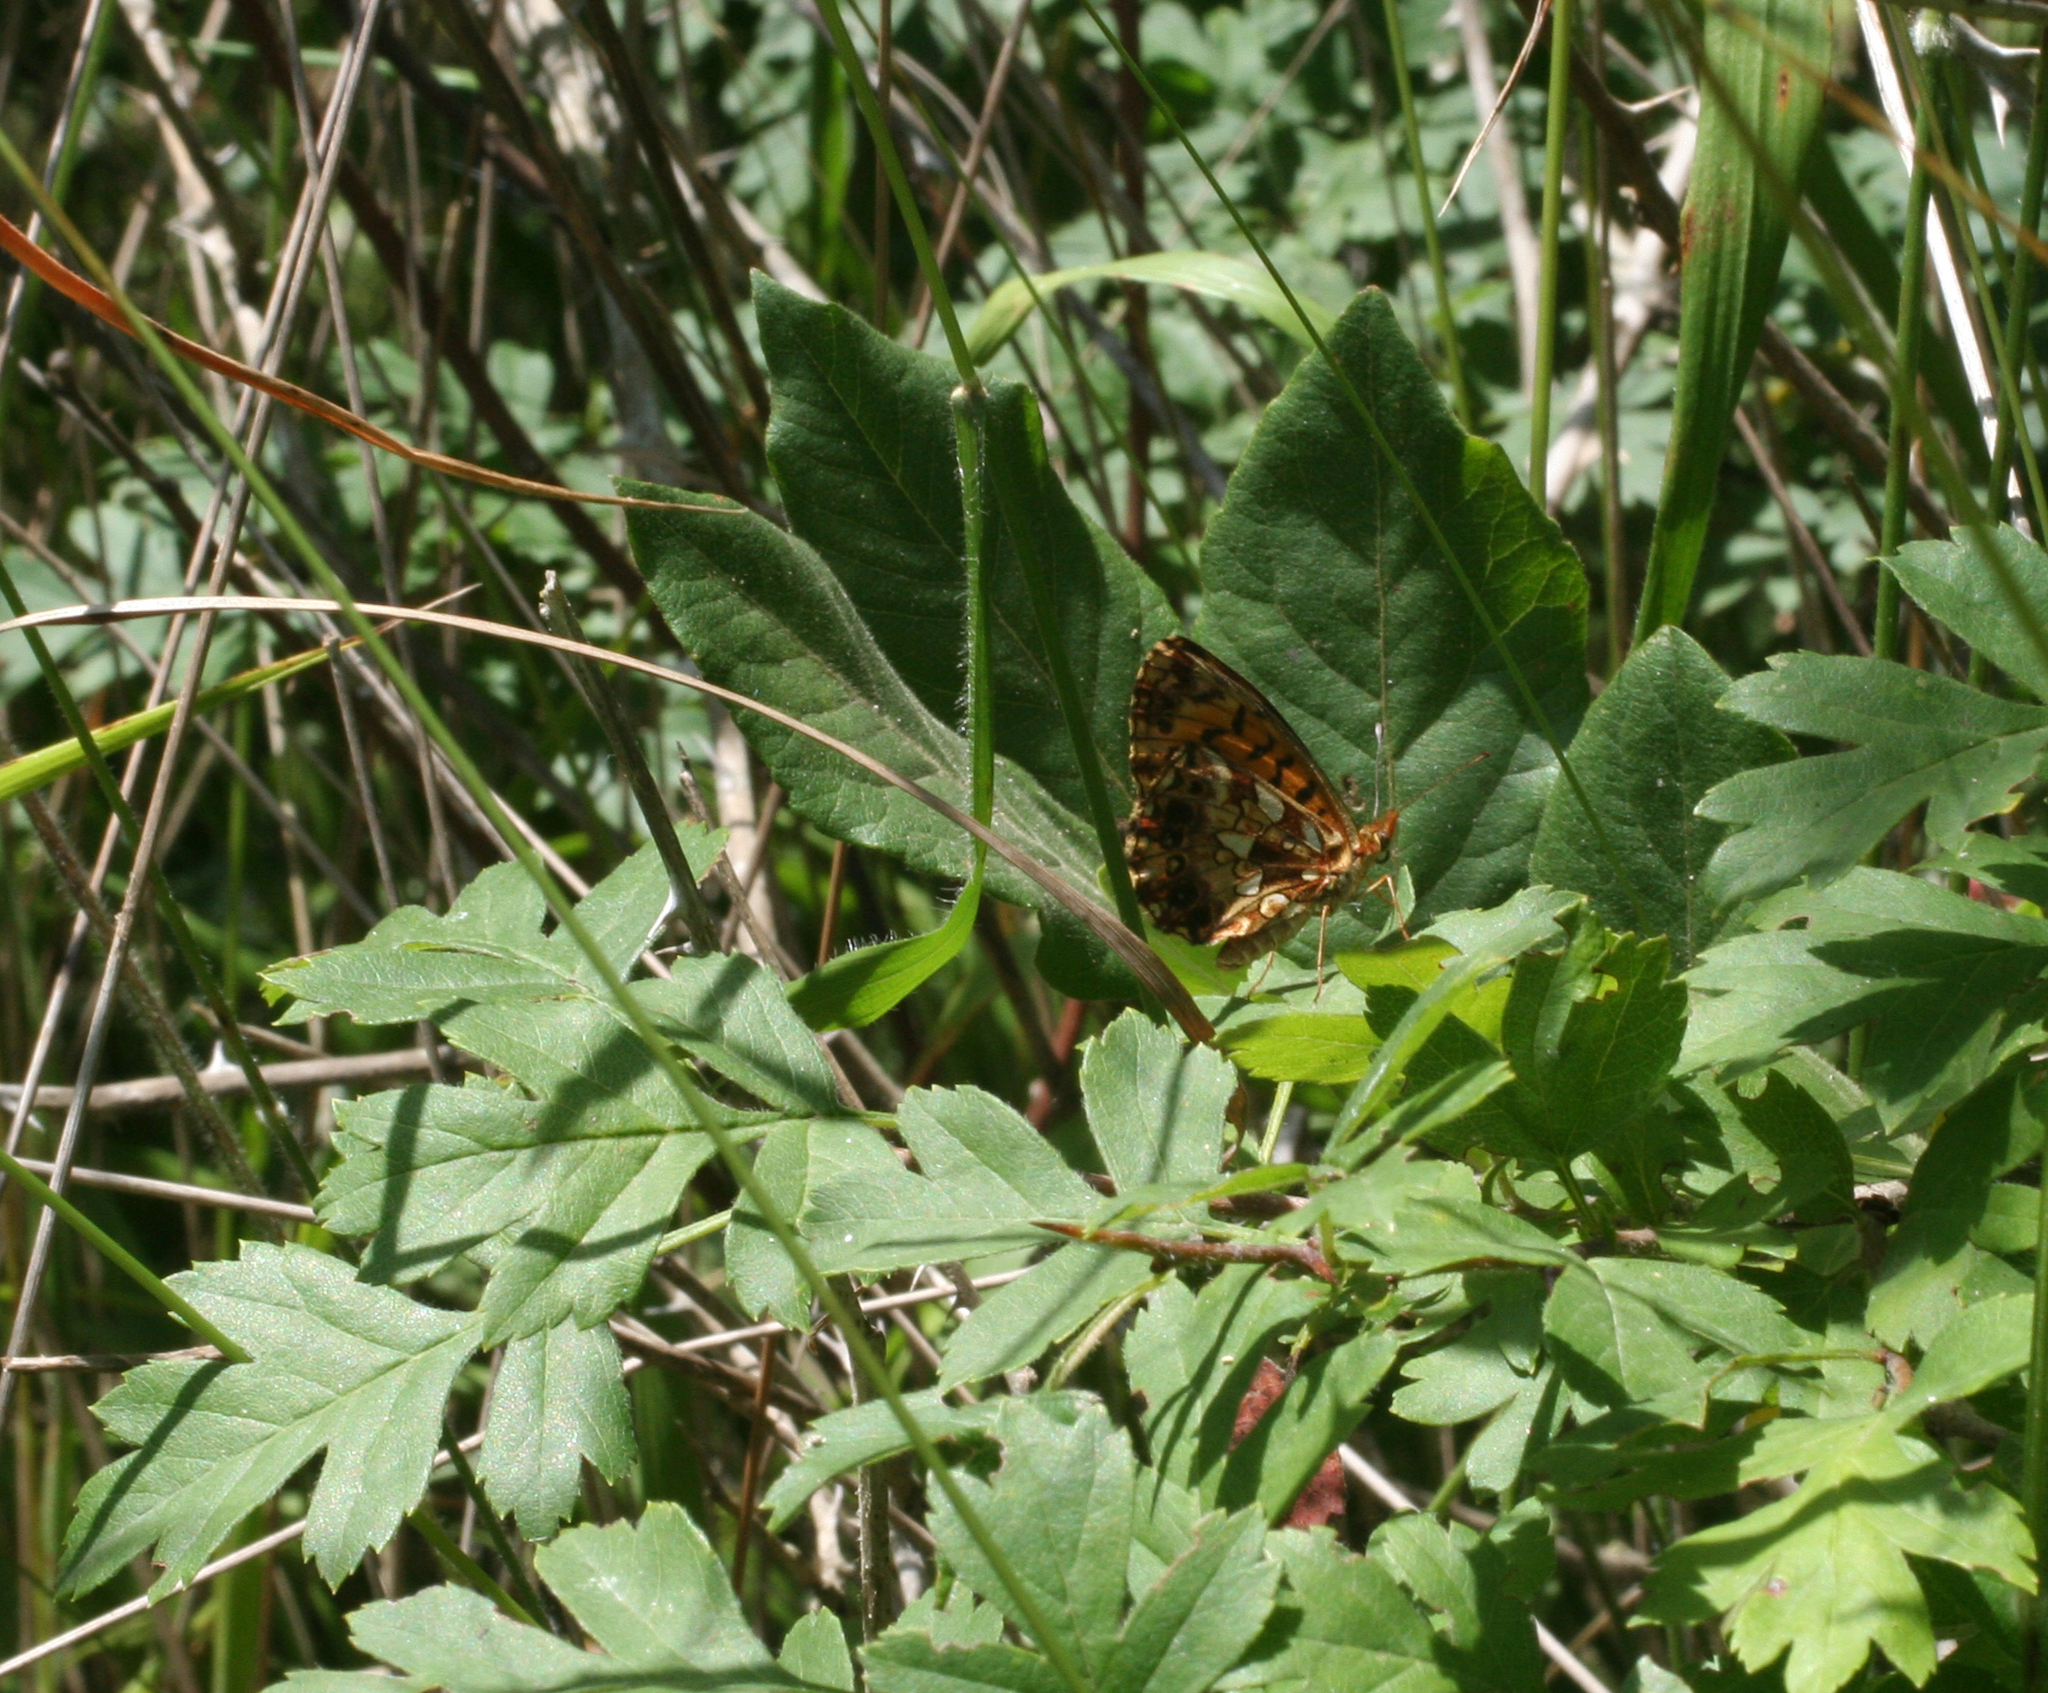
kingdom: Animalia
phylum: Arthropoda
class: Insecta
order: Lepidoptera
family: Nymphalidae
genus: Boloria
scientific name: Boloria dia
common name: Weaver's fritillary
